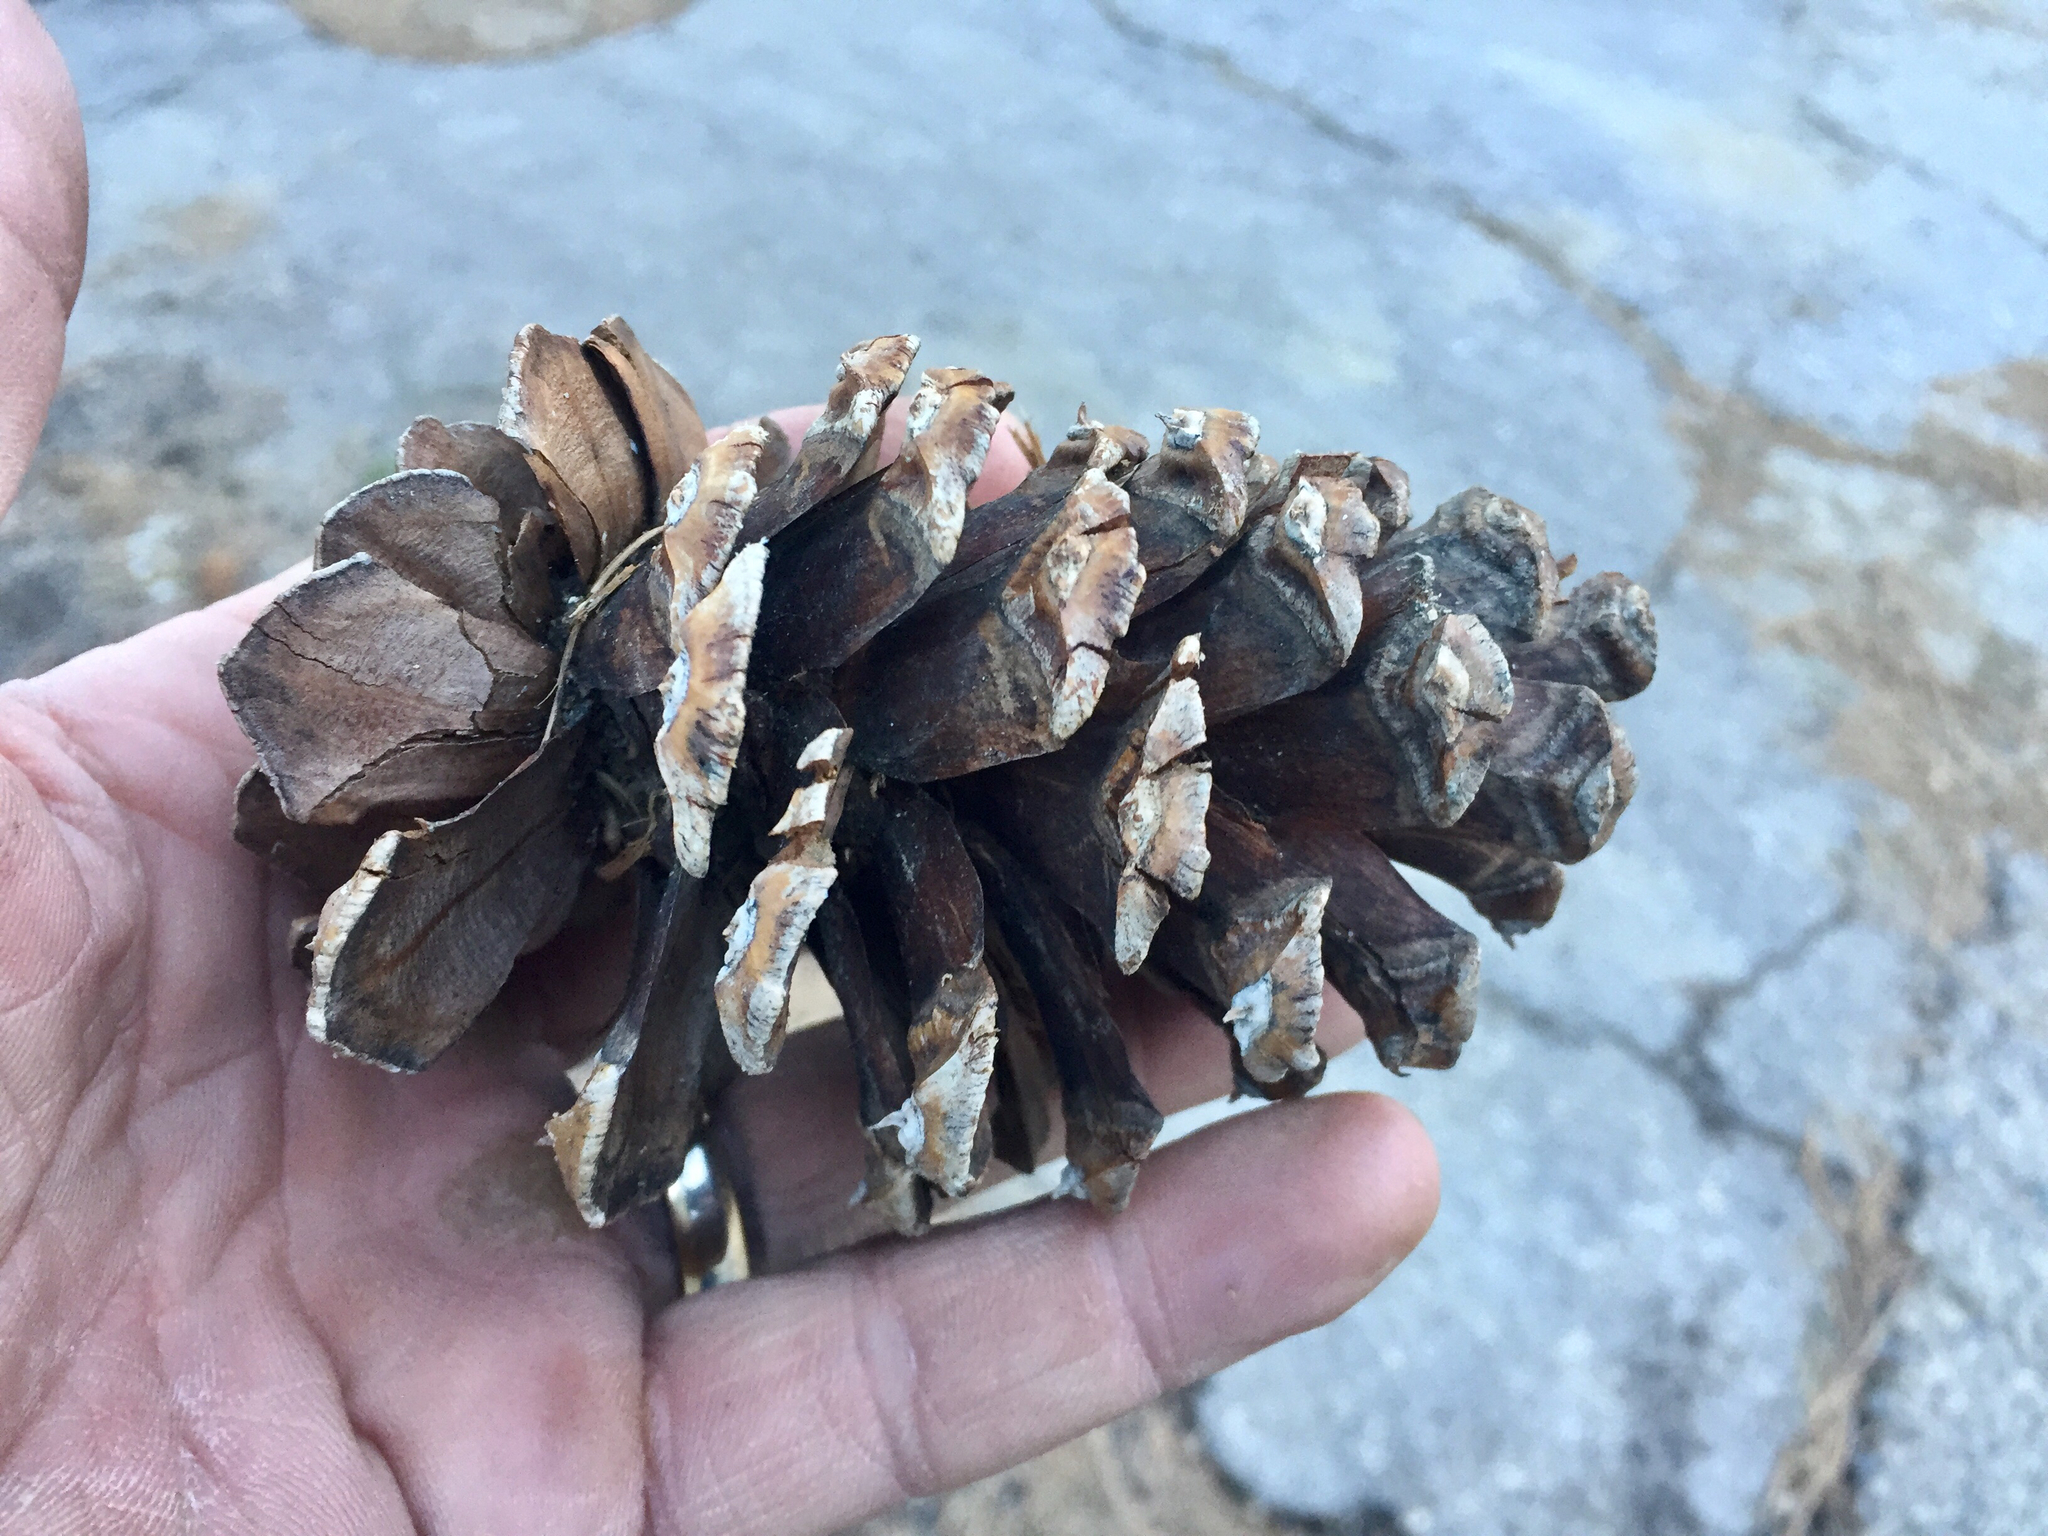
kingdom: Plantae
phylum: Tracheophyta
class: Pinopsida
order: Pinales
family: Pinaceae
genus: Pinus
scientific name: Pinus ponderosa
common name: Western yellow-pine
